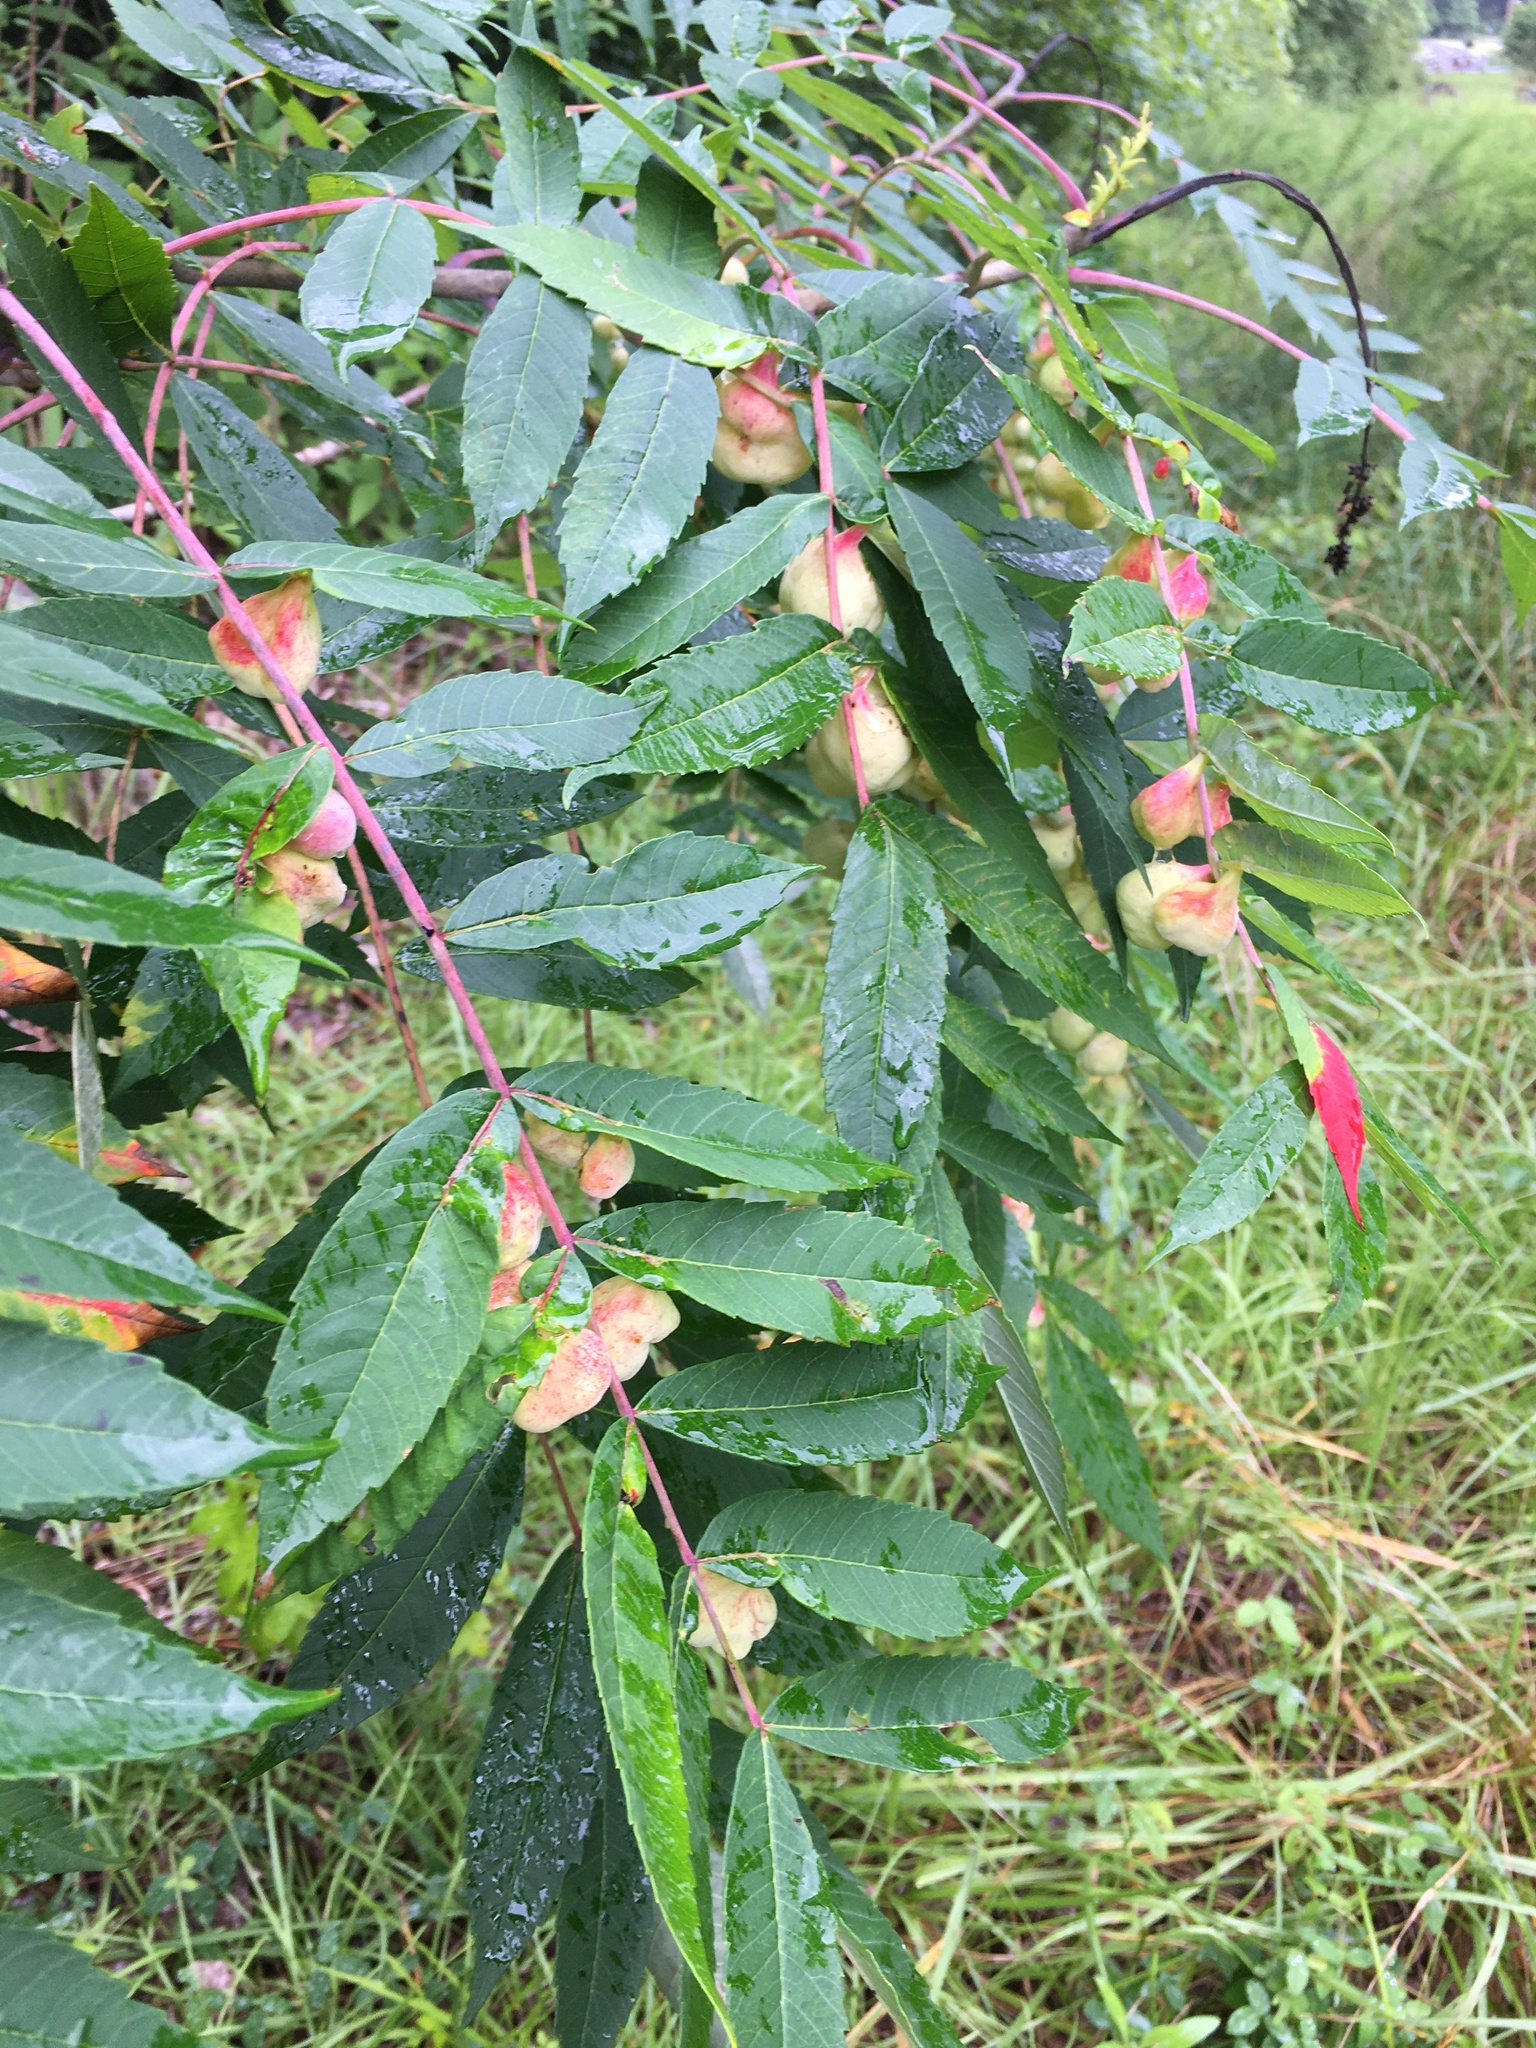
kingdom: Animalia
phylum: Arthropoda
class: Insecta
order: Hemiptera
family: Aphididae
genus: Melaphis
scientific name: Melaphis rhois
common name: Sumac gall aphid
